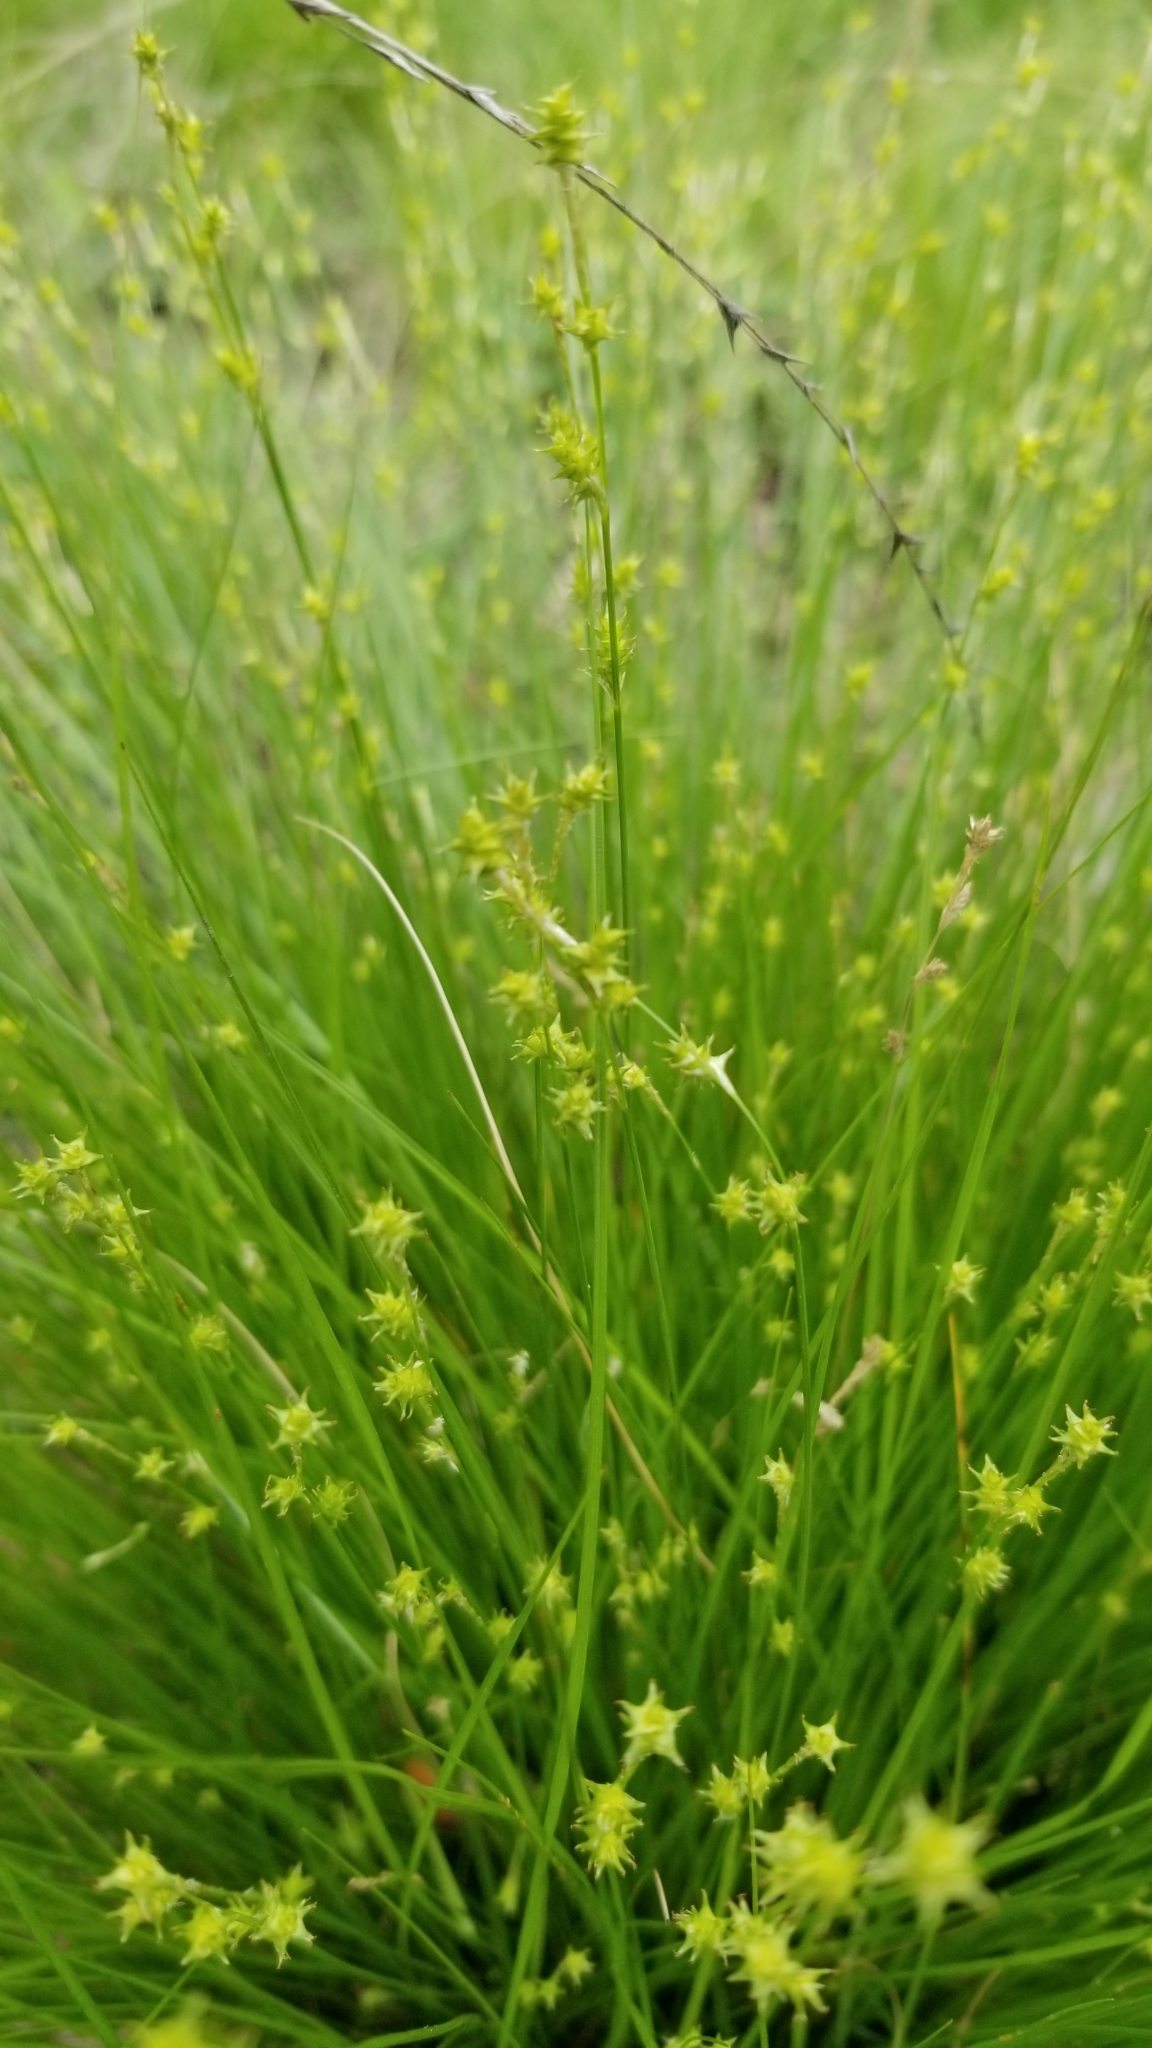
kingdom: Plantae
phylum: Tracheophyta
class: Liliopsida
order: Poales
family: Cyperaceae
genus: Carex
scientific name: Carex atlantica
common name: Atlantic sedge
